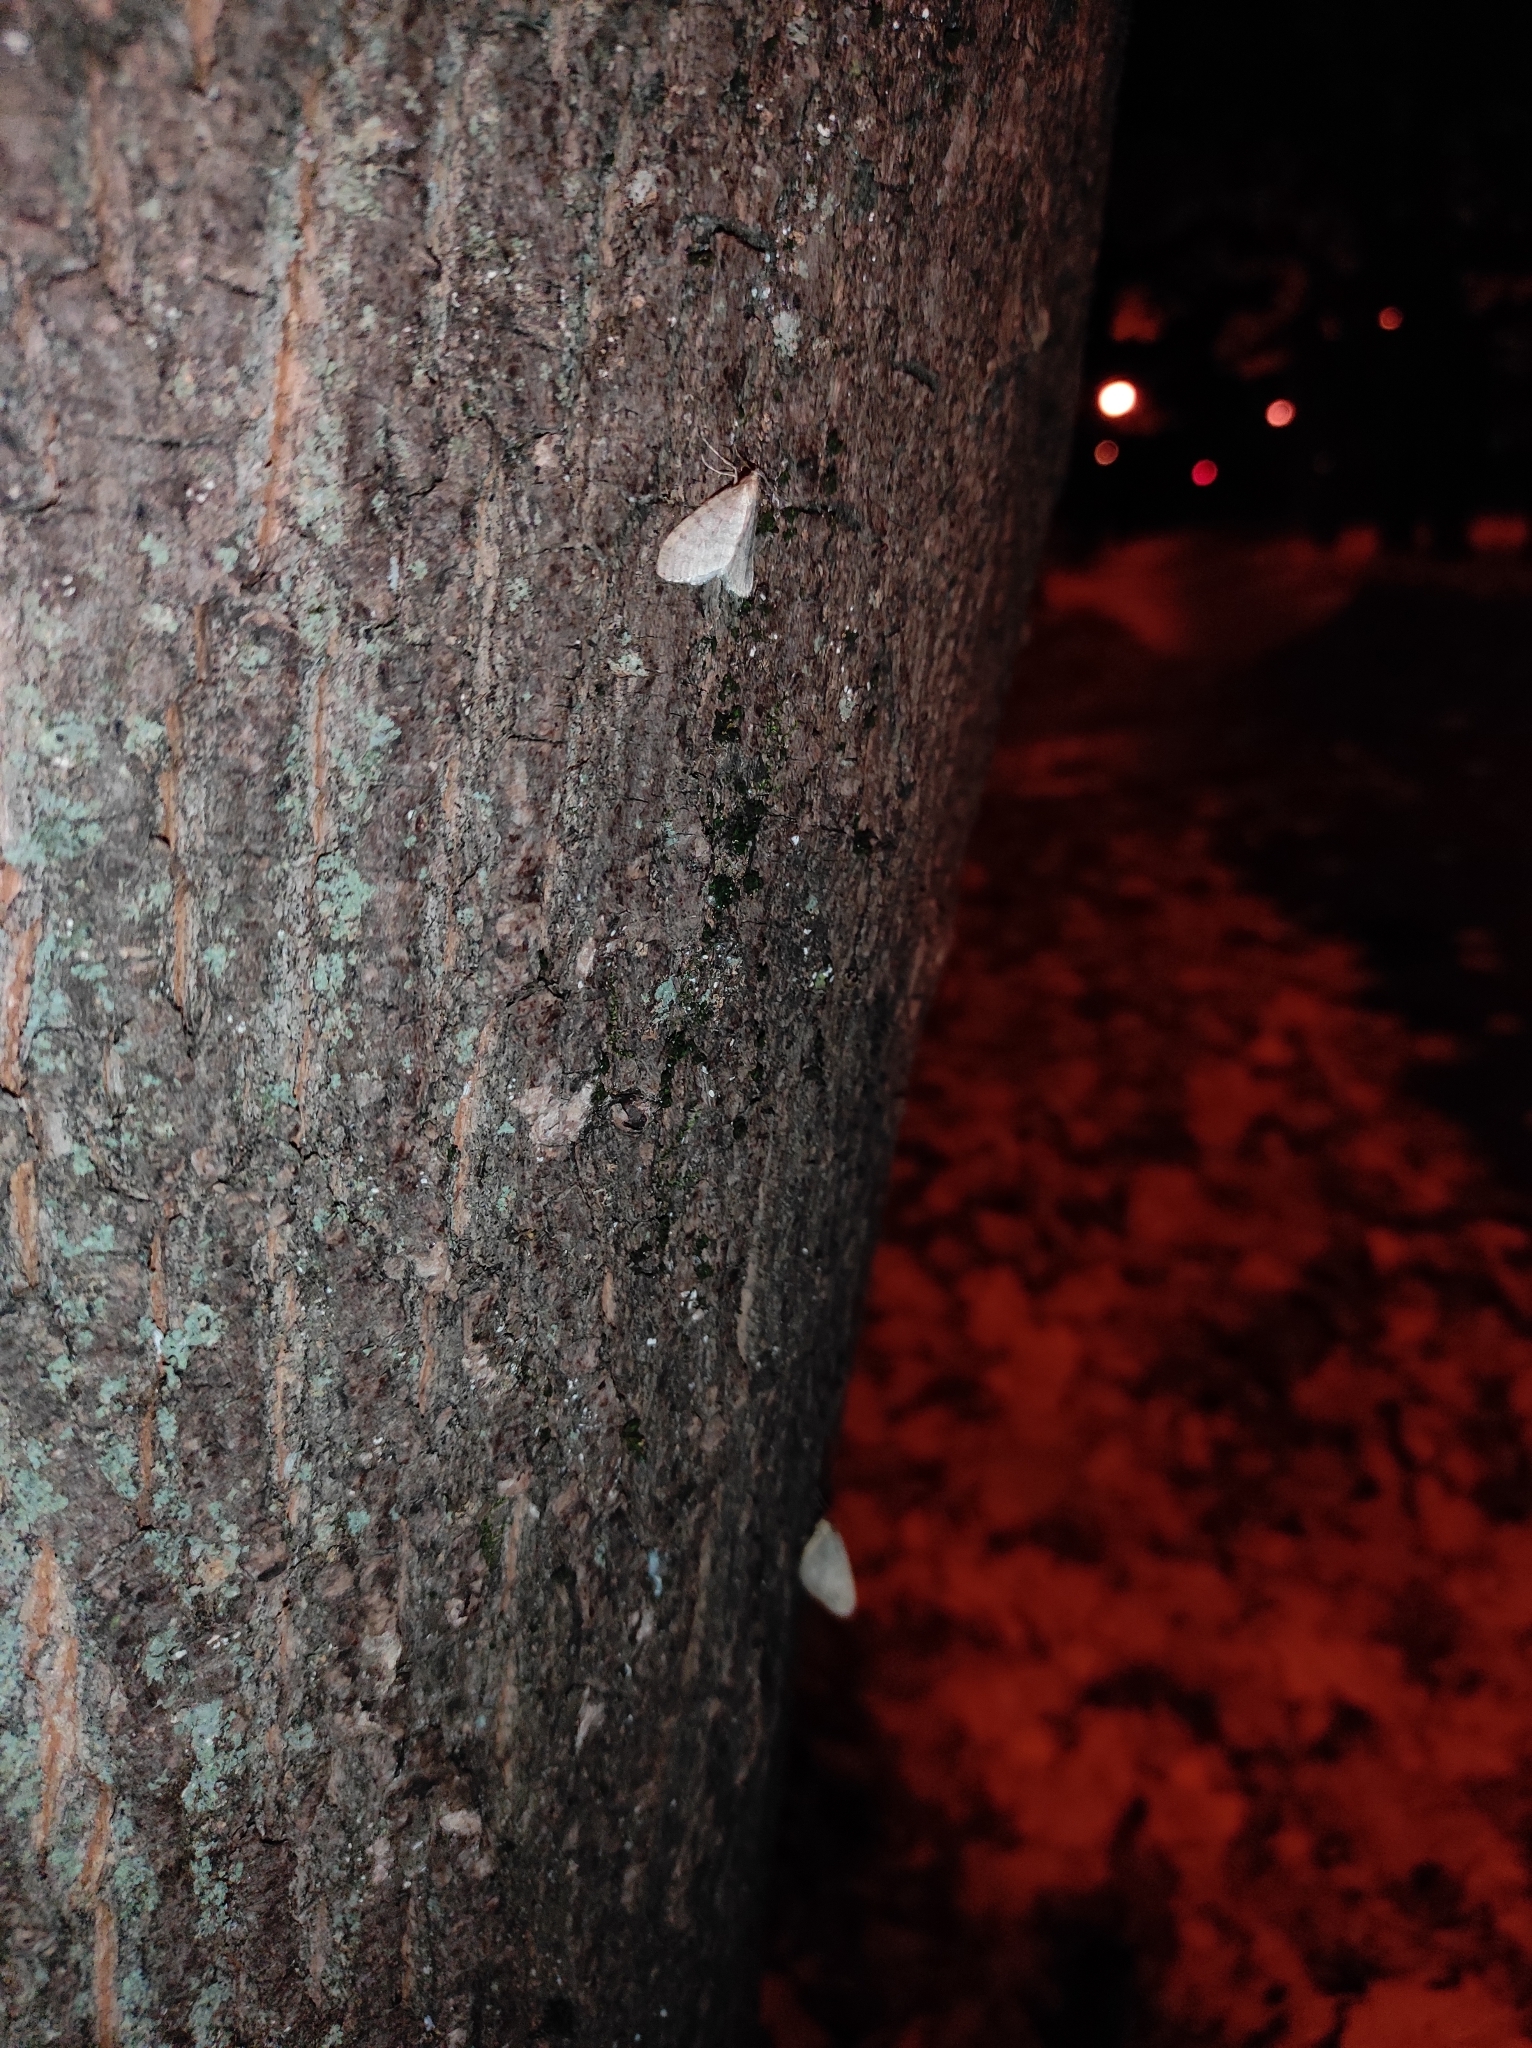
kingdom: Animalia
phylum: Arthropoda
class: Insecta
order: Lepidoptera
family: Geometridae
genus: Operophtera
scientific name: Operophtera brumata
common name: Winter moth
